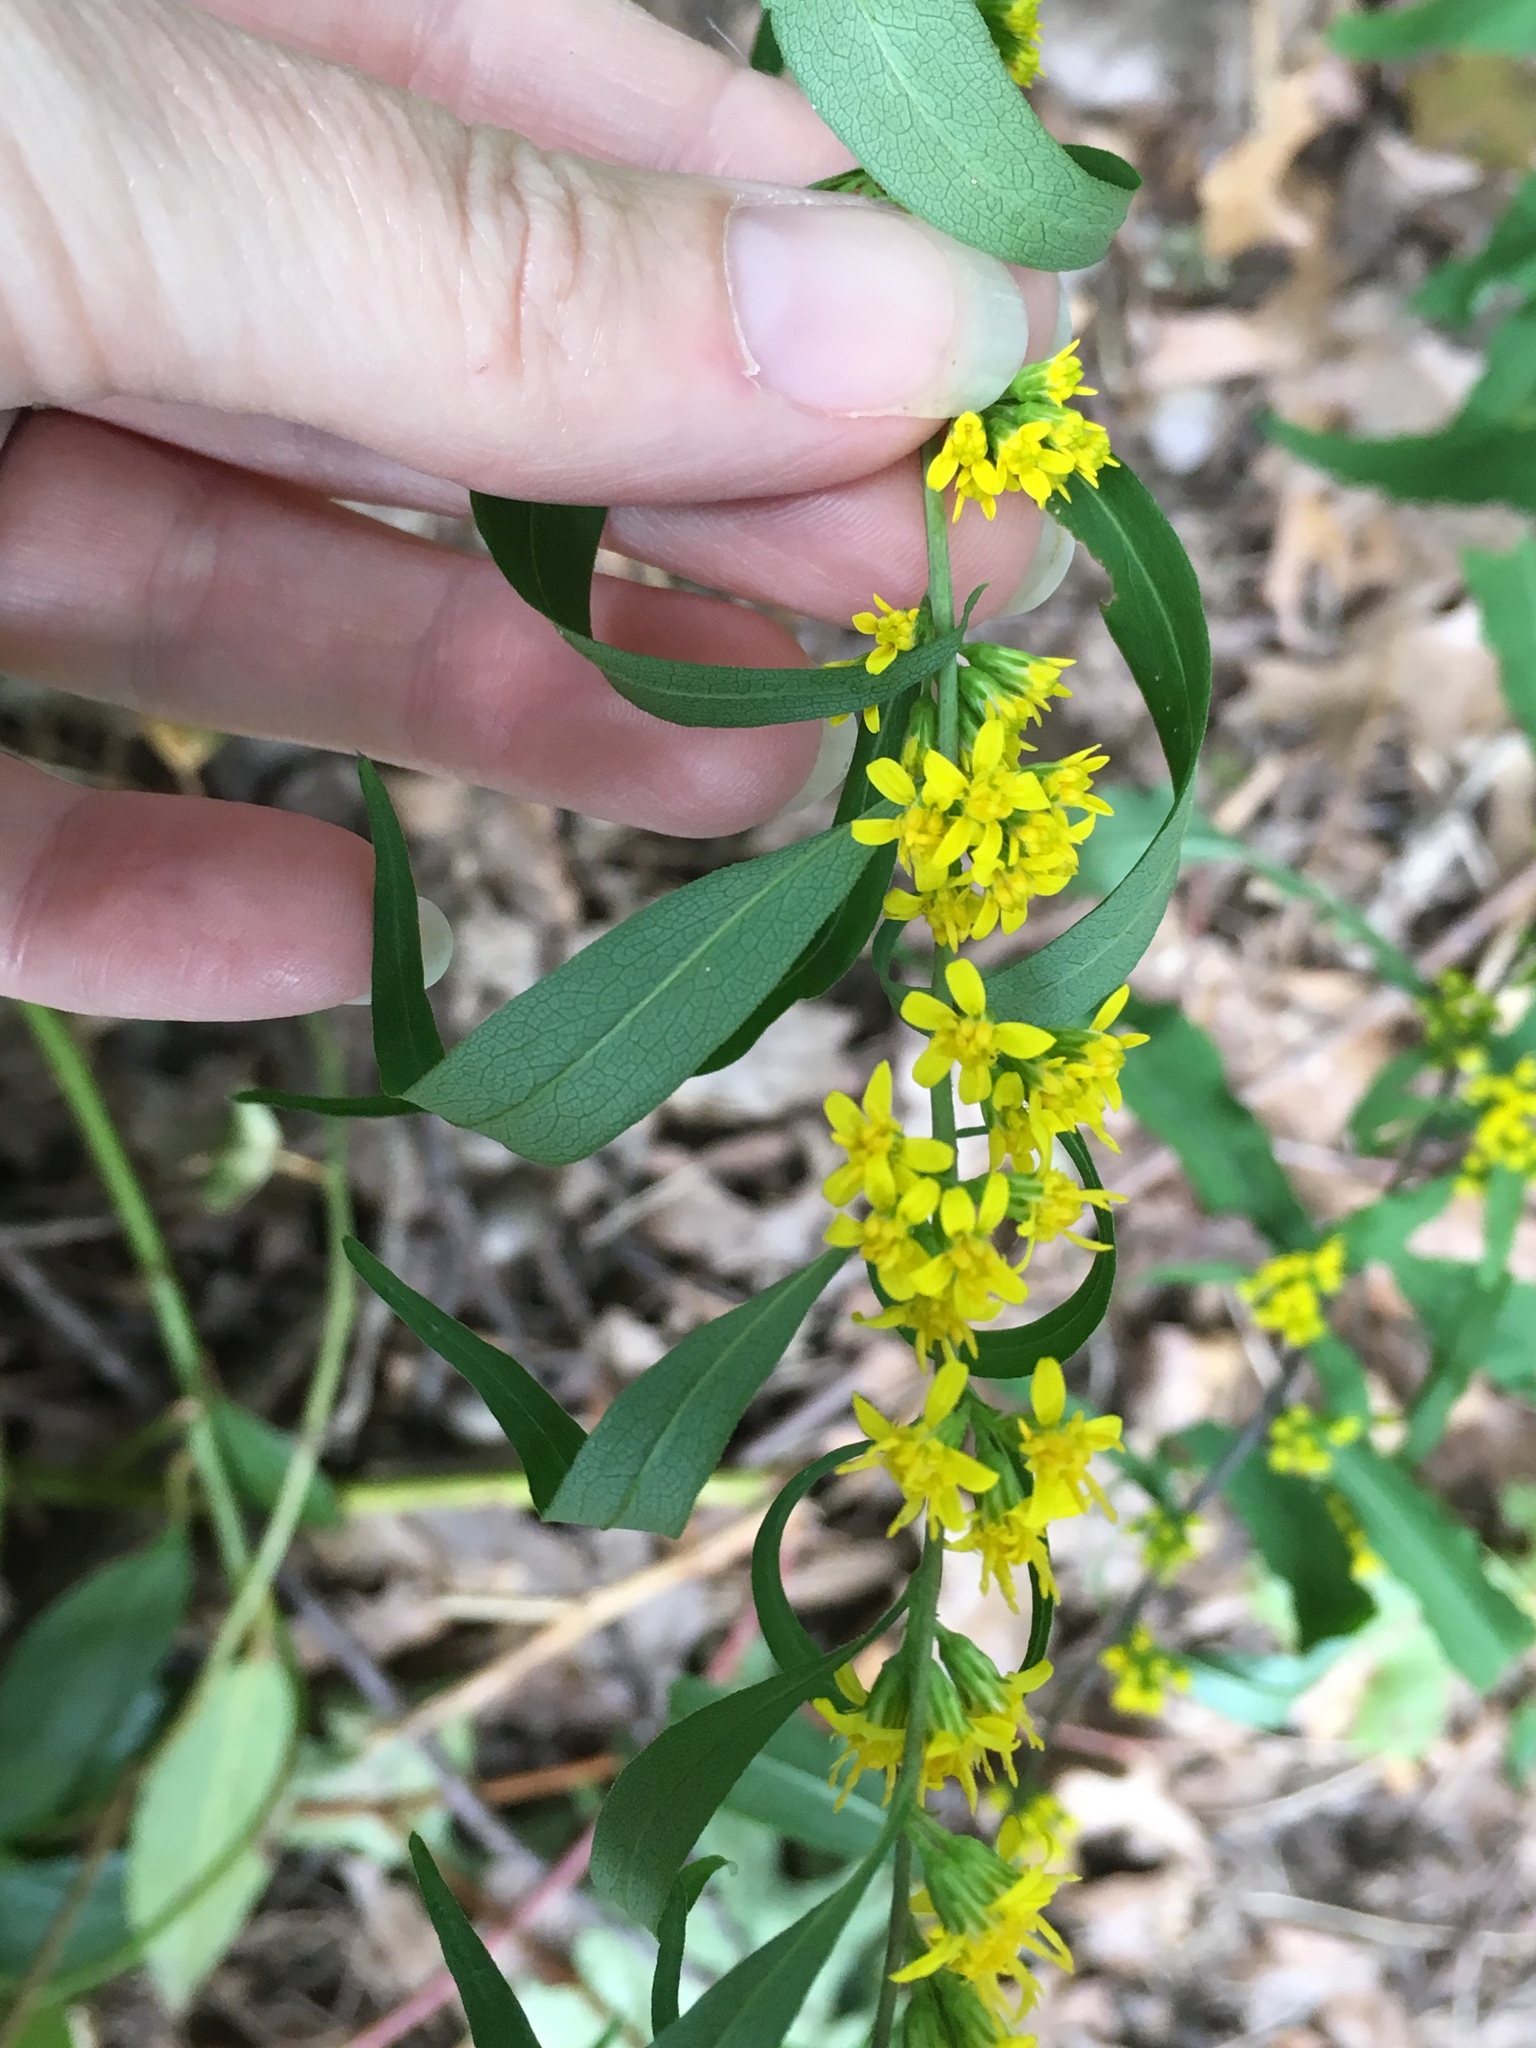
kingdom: Plantae
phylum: Tracheophyta
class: Magnoliopsida
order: Asterales
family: Asteraceae
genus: Solidago
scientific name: Solidago caesia
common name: Woodland goldenrod
